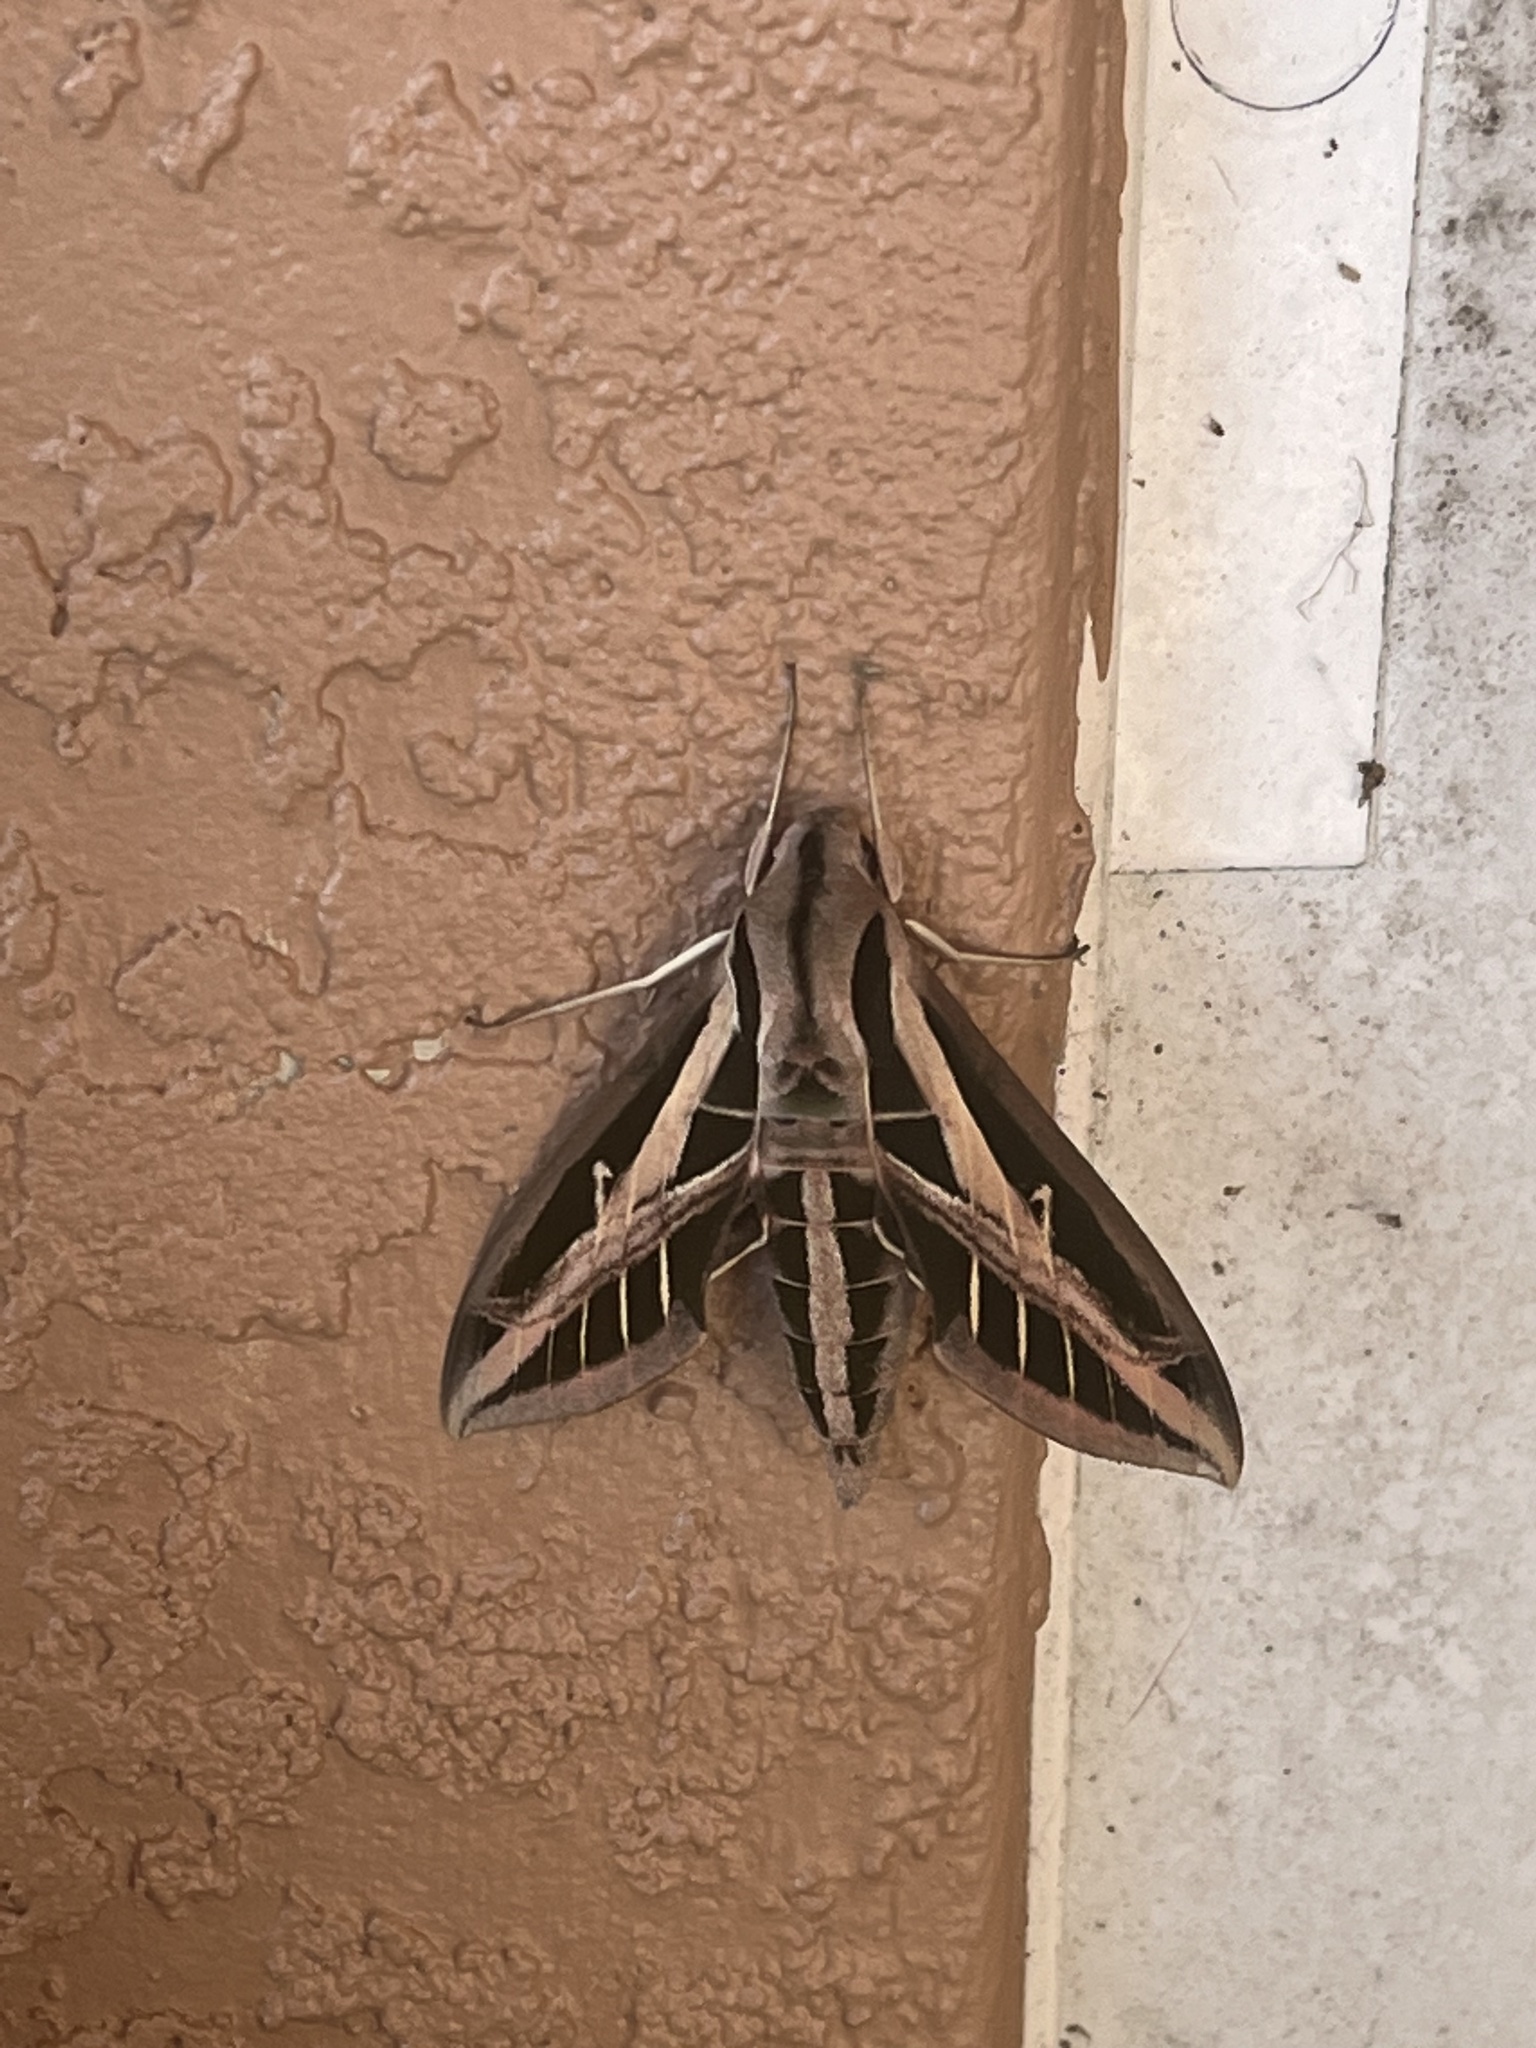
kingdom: Animalia
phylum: Arthropoda
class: Insecta
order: Lepidoptera
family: Sphingidae
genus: Eumorpha
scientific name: Eumorpha fasciatus
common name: Banded sphinx
